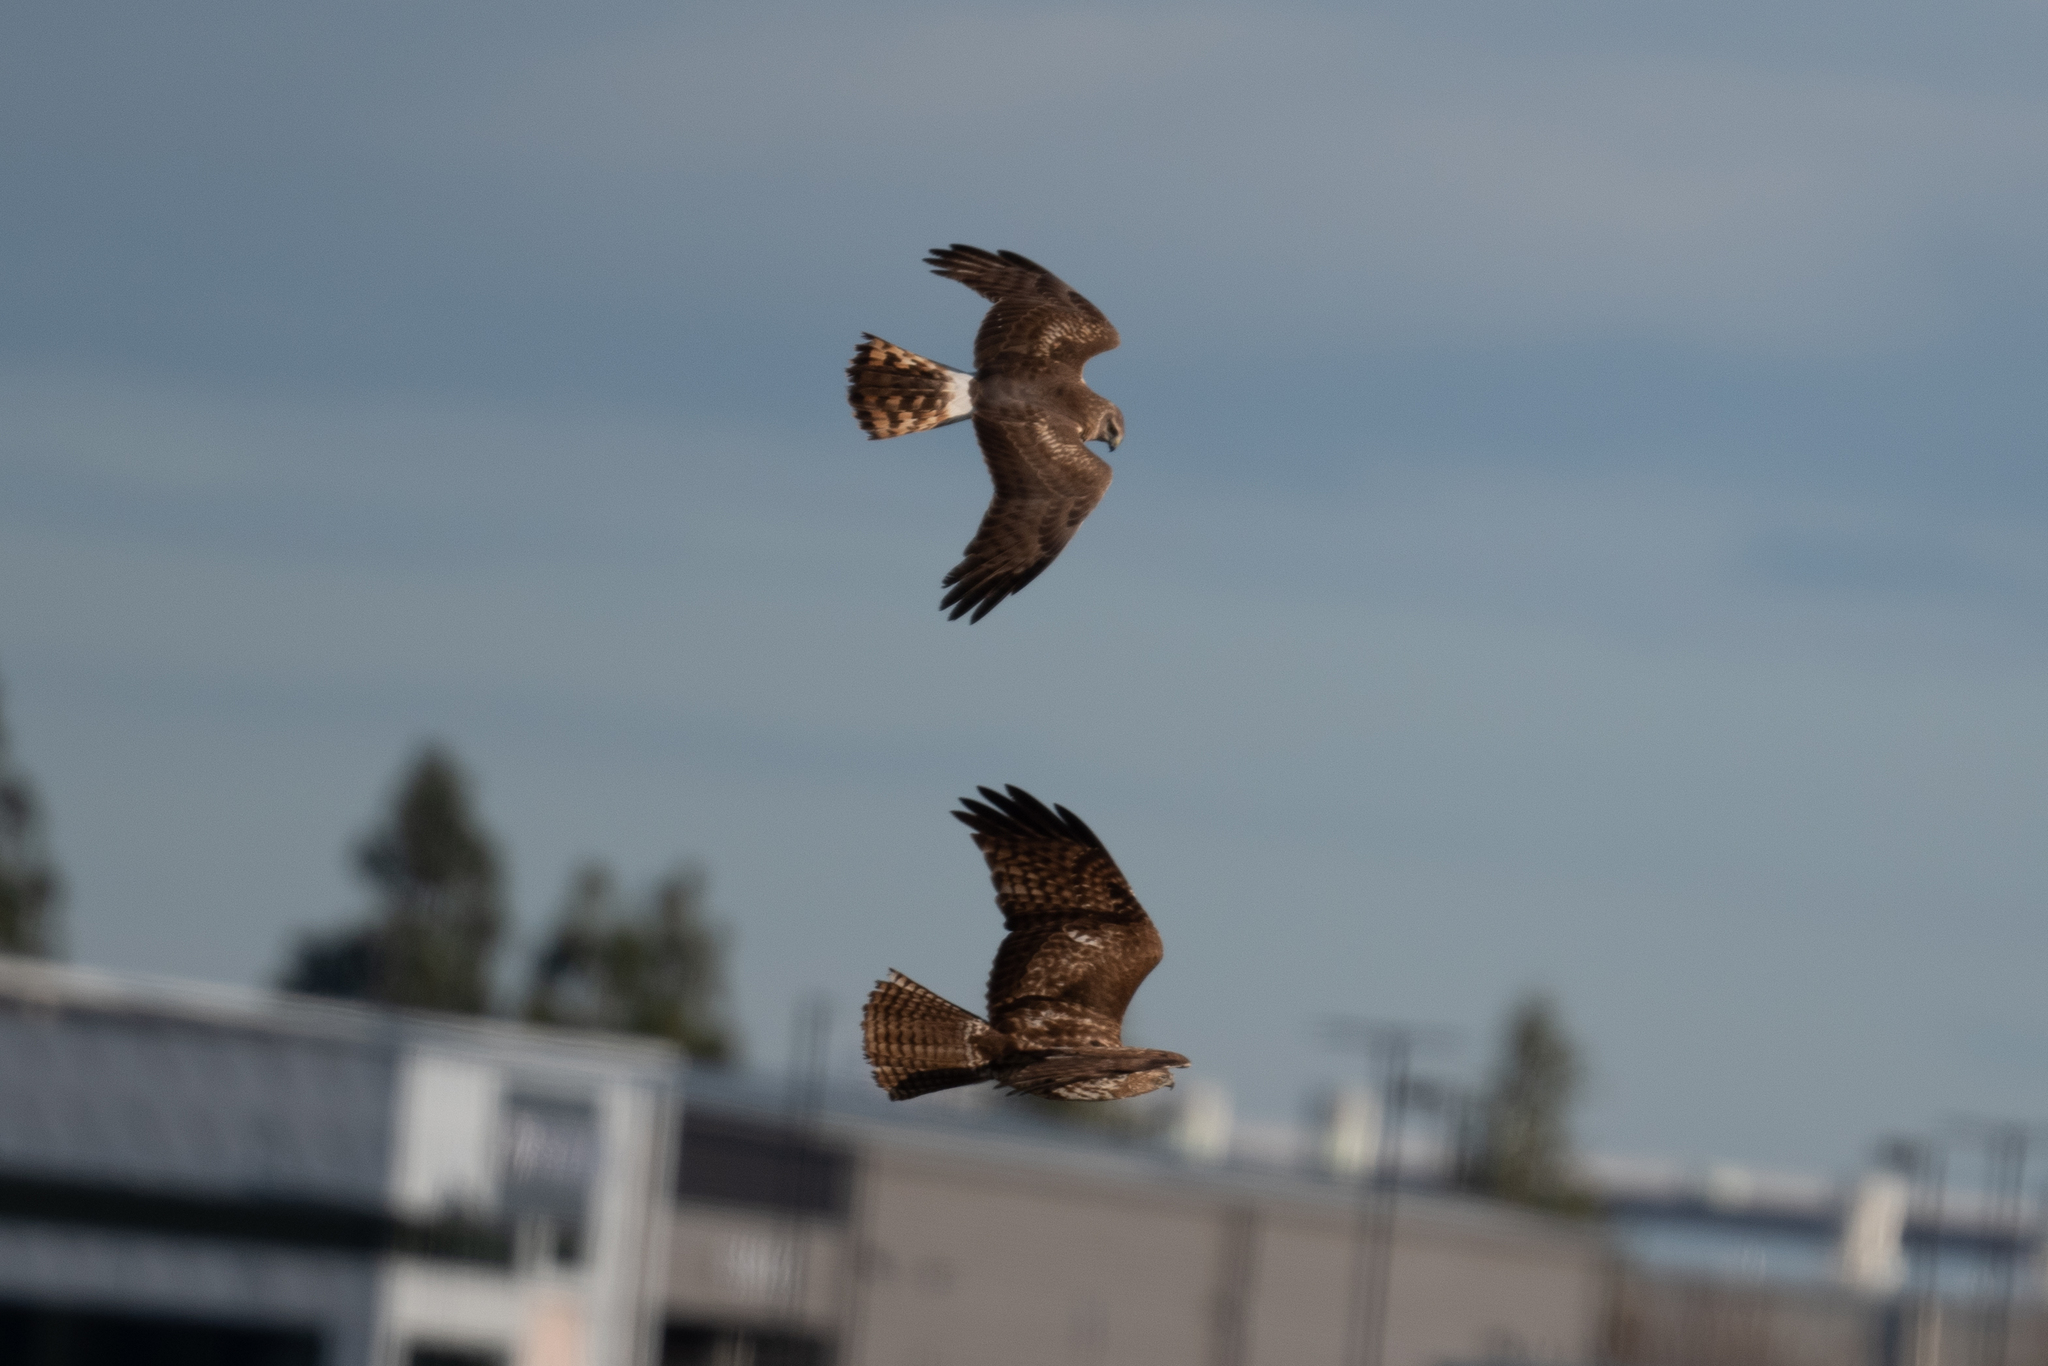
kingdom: Animalia
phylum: Chordata
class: Aves
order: Accipitriformes
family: Accipitridae
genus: Circus
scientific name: Circus cyaneus
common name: Hen harrier
